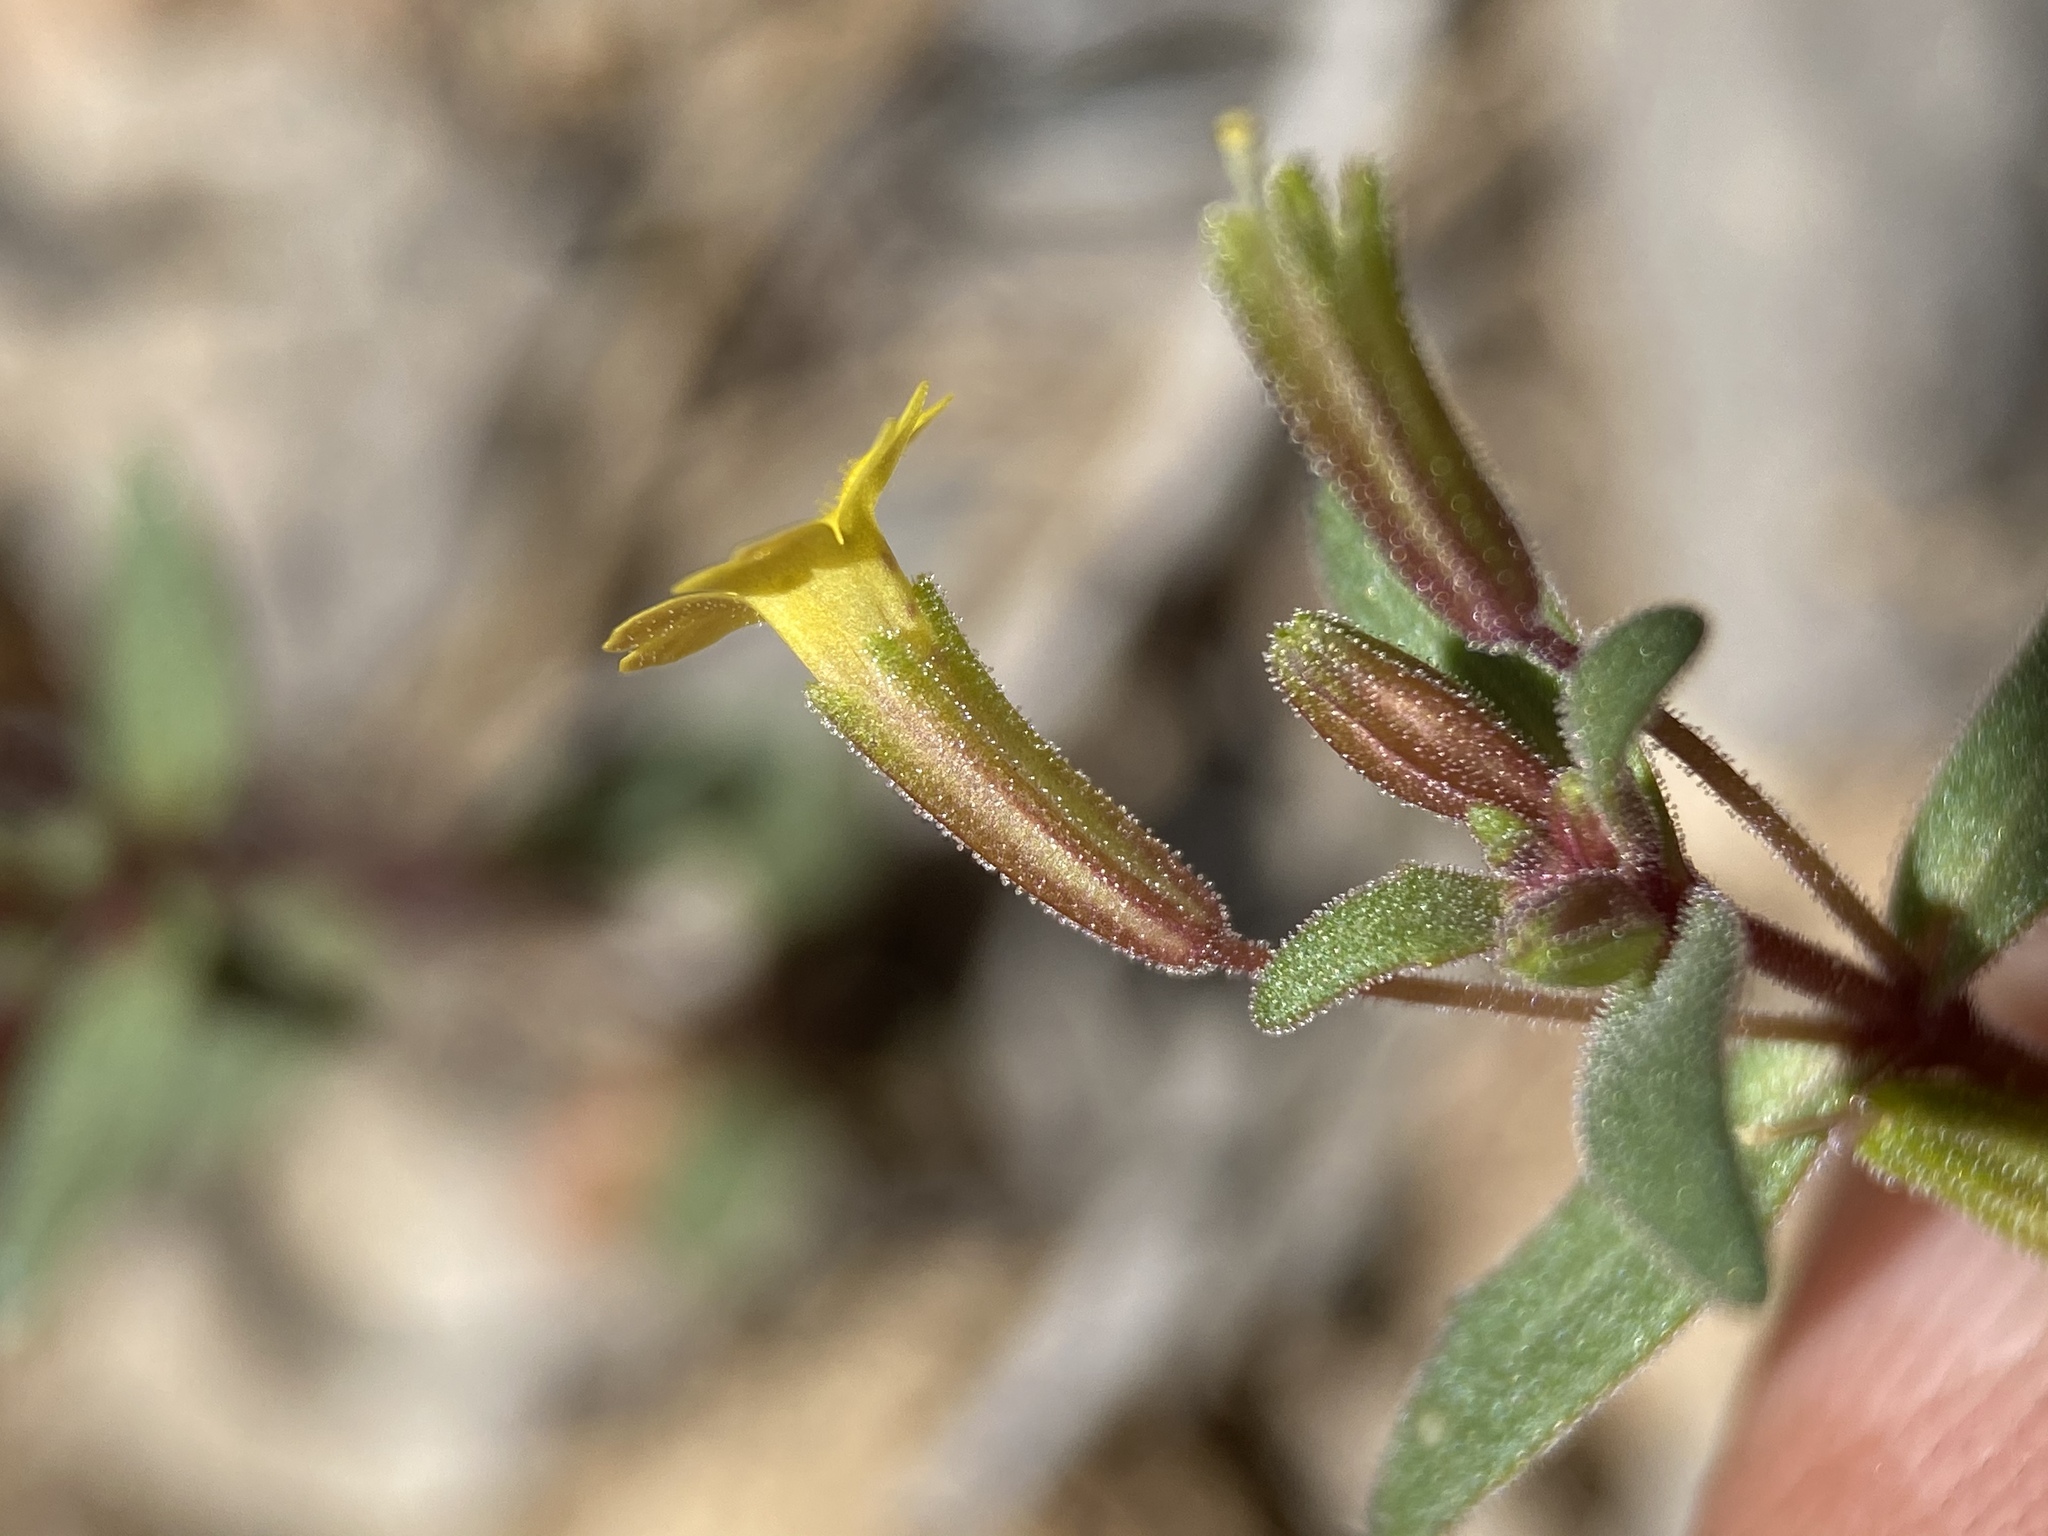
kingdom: Plantae
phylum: Tracheophyta
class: Magnoliopsida
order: Lamiales
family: Phrymaceae
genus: Erythranthe
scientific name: Erythranthe rubella
